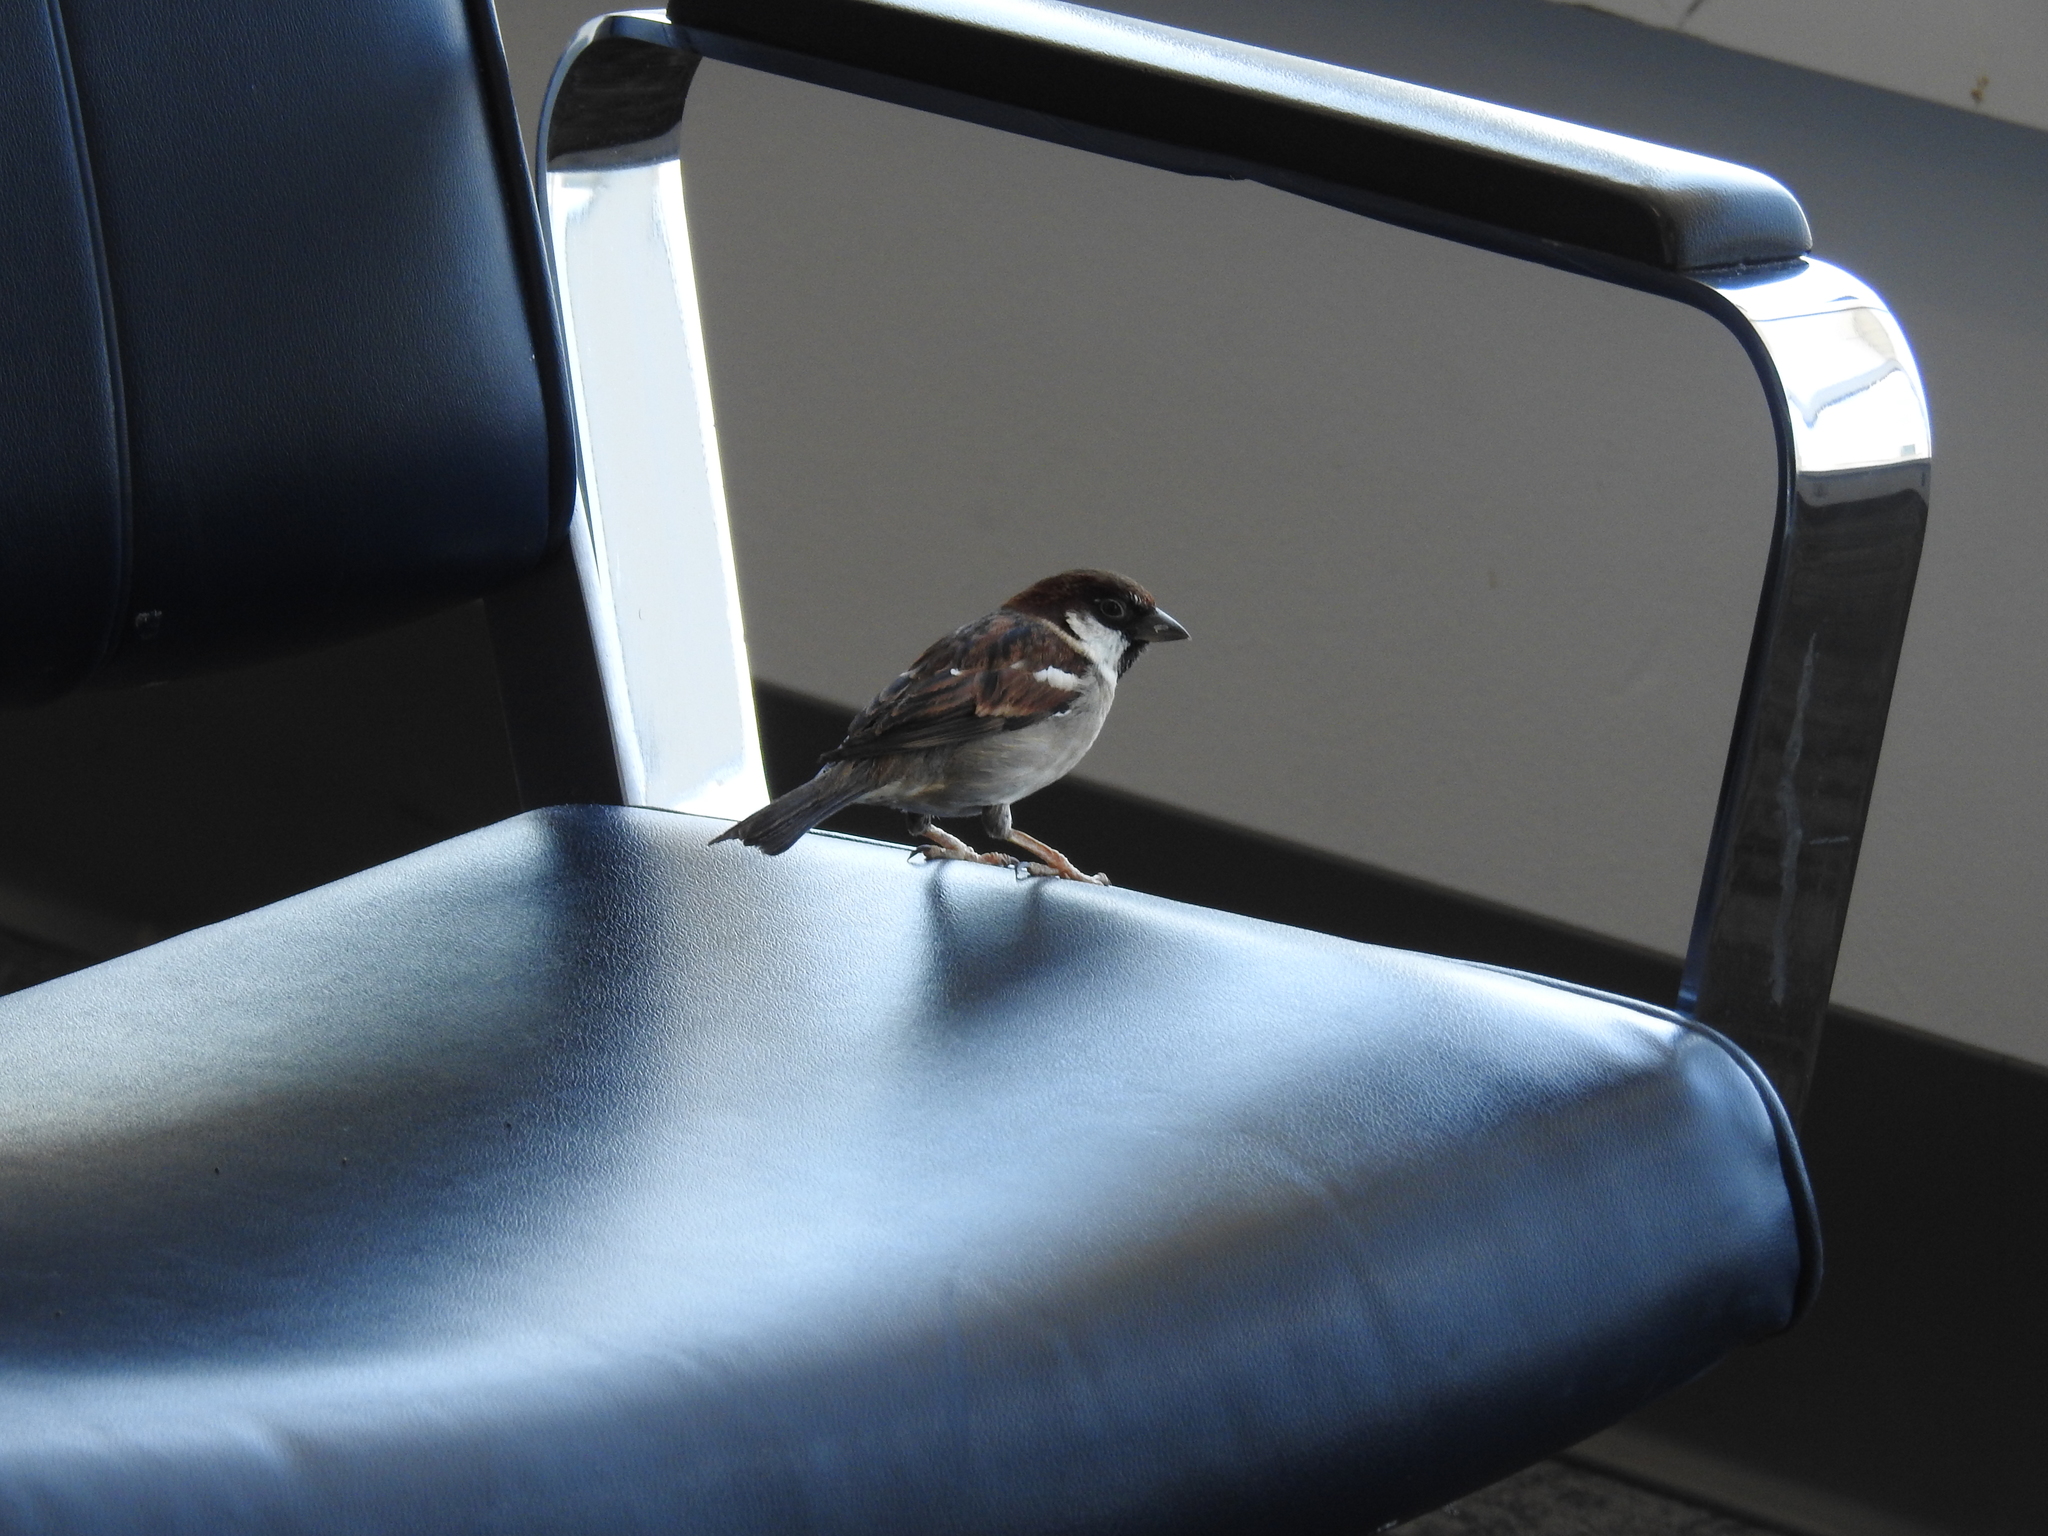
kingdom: Animalia
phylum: Chordata
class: Aves
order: Passeriformes
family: Passeridae
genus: Passer
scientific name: Passer domesticus
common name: House sparrow
